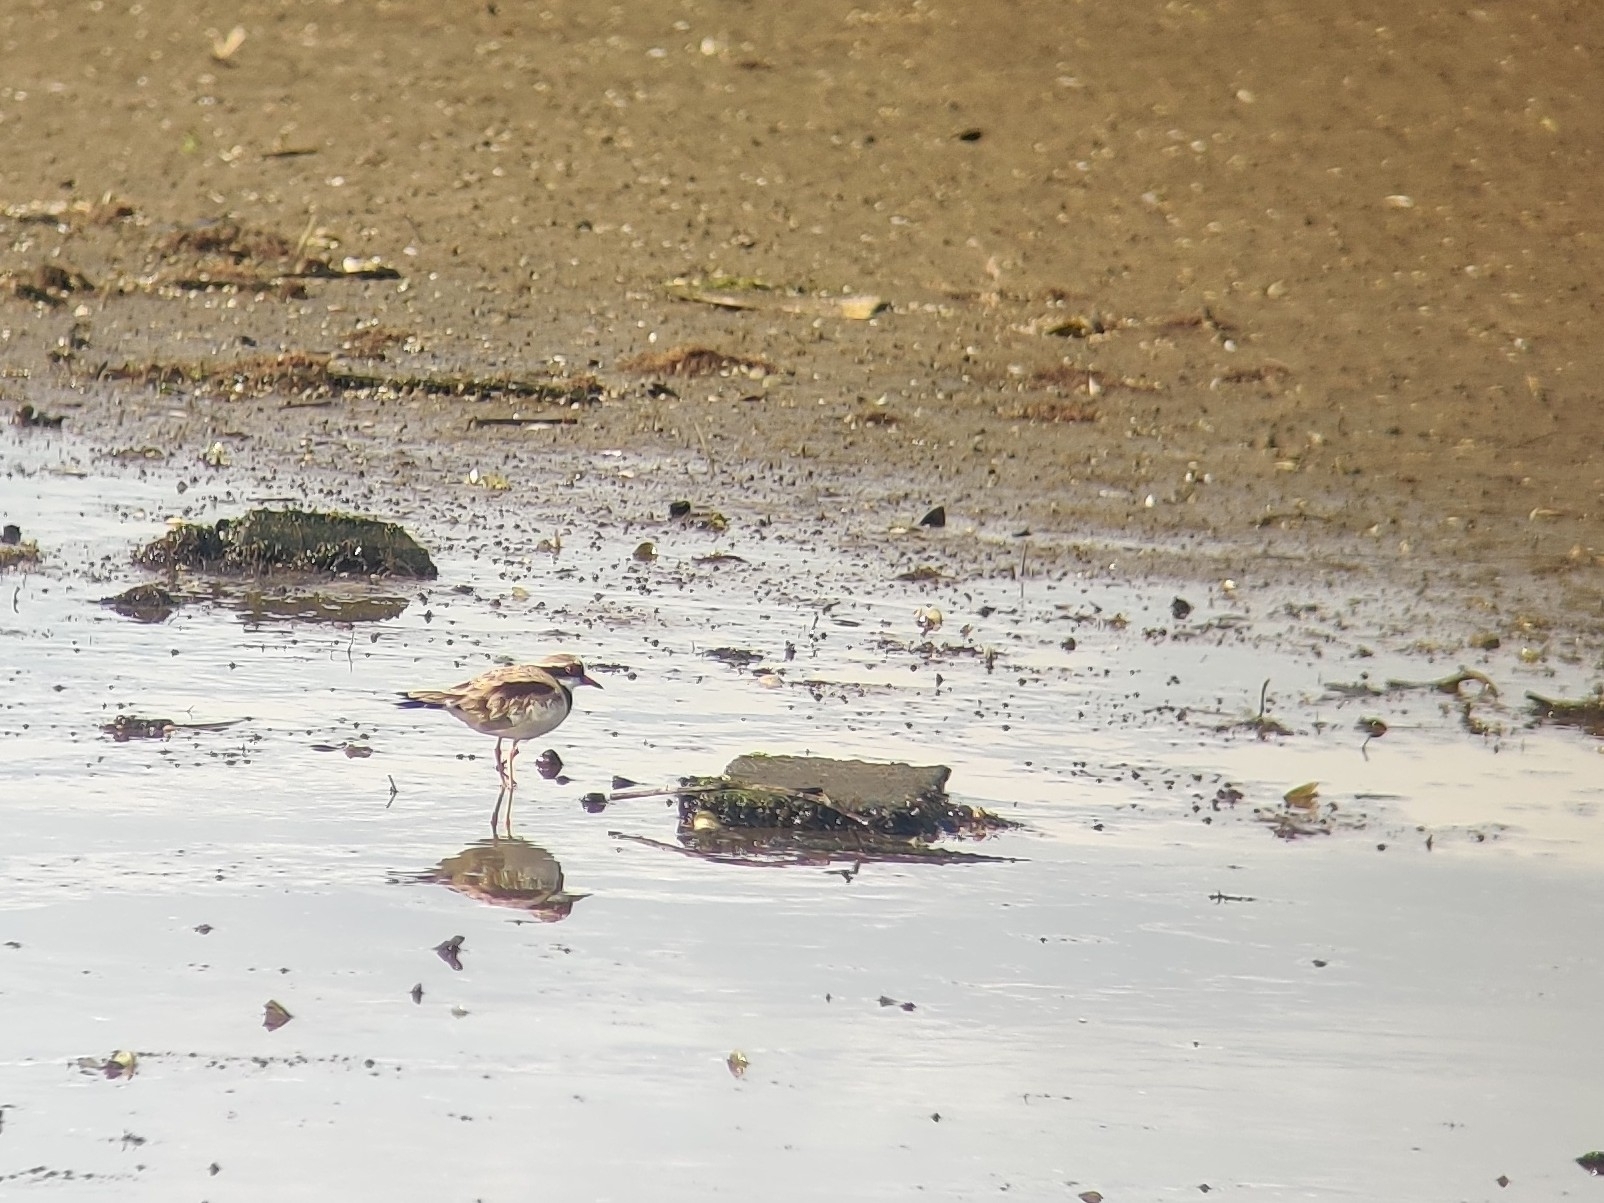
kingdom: Animalia
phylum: Chordata
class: Aves
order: Charadriiformes
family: Charadriidae
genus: Elseyornis
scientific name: Elseyornis melanops
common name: Black-fronted dotterel
